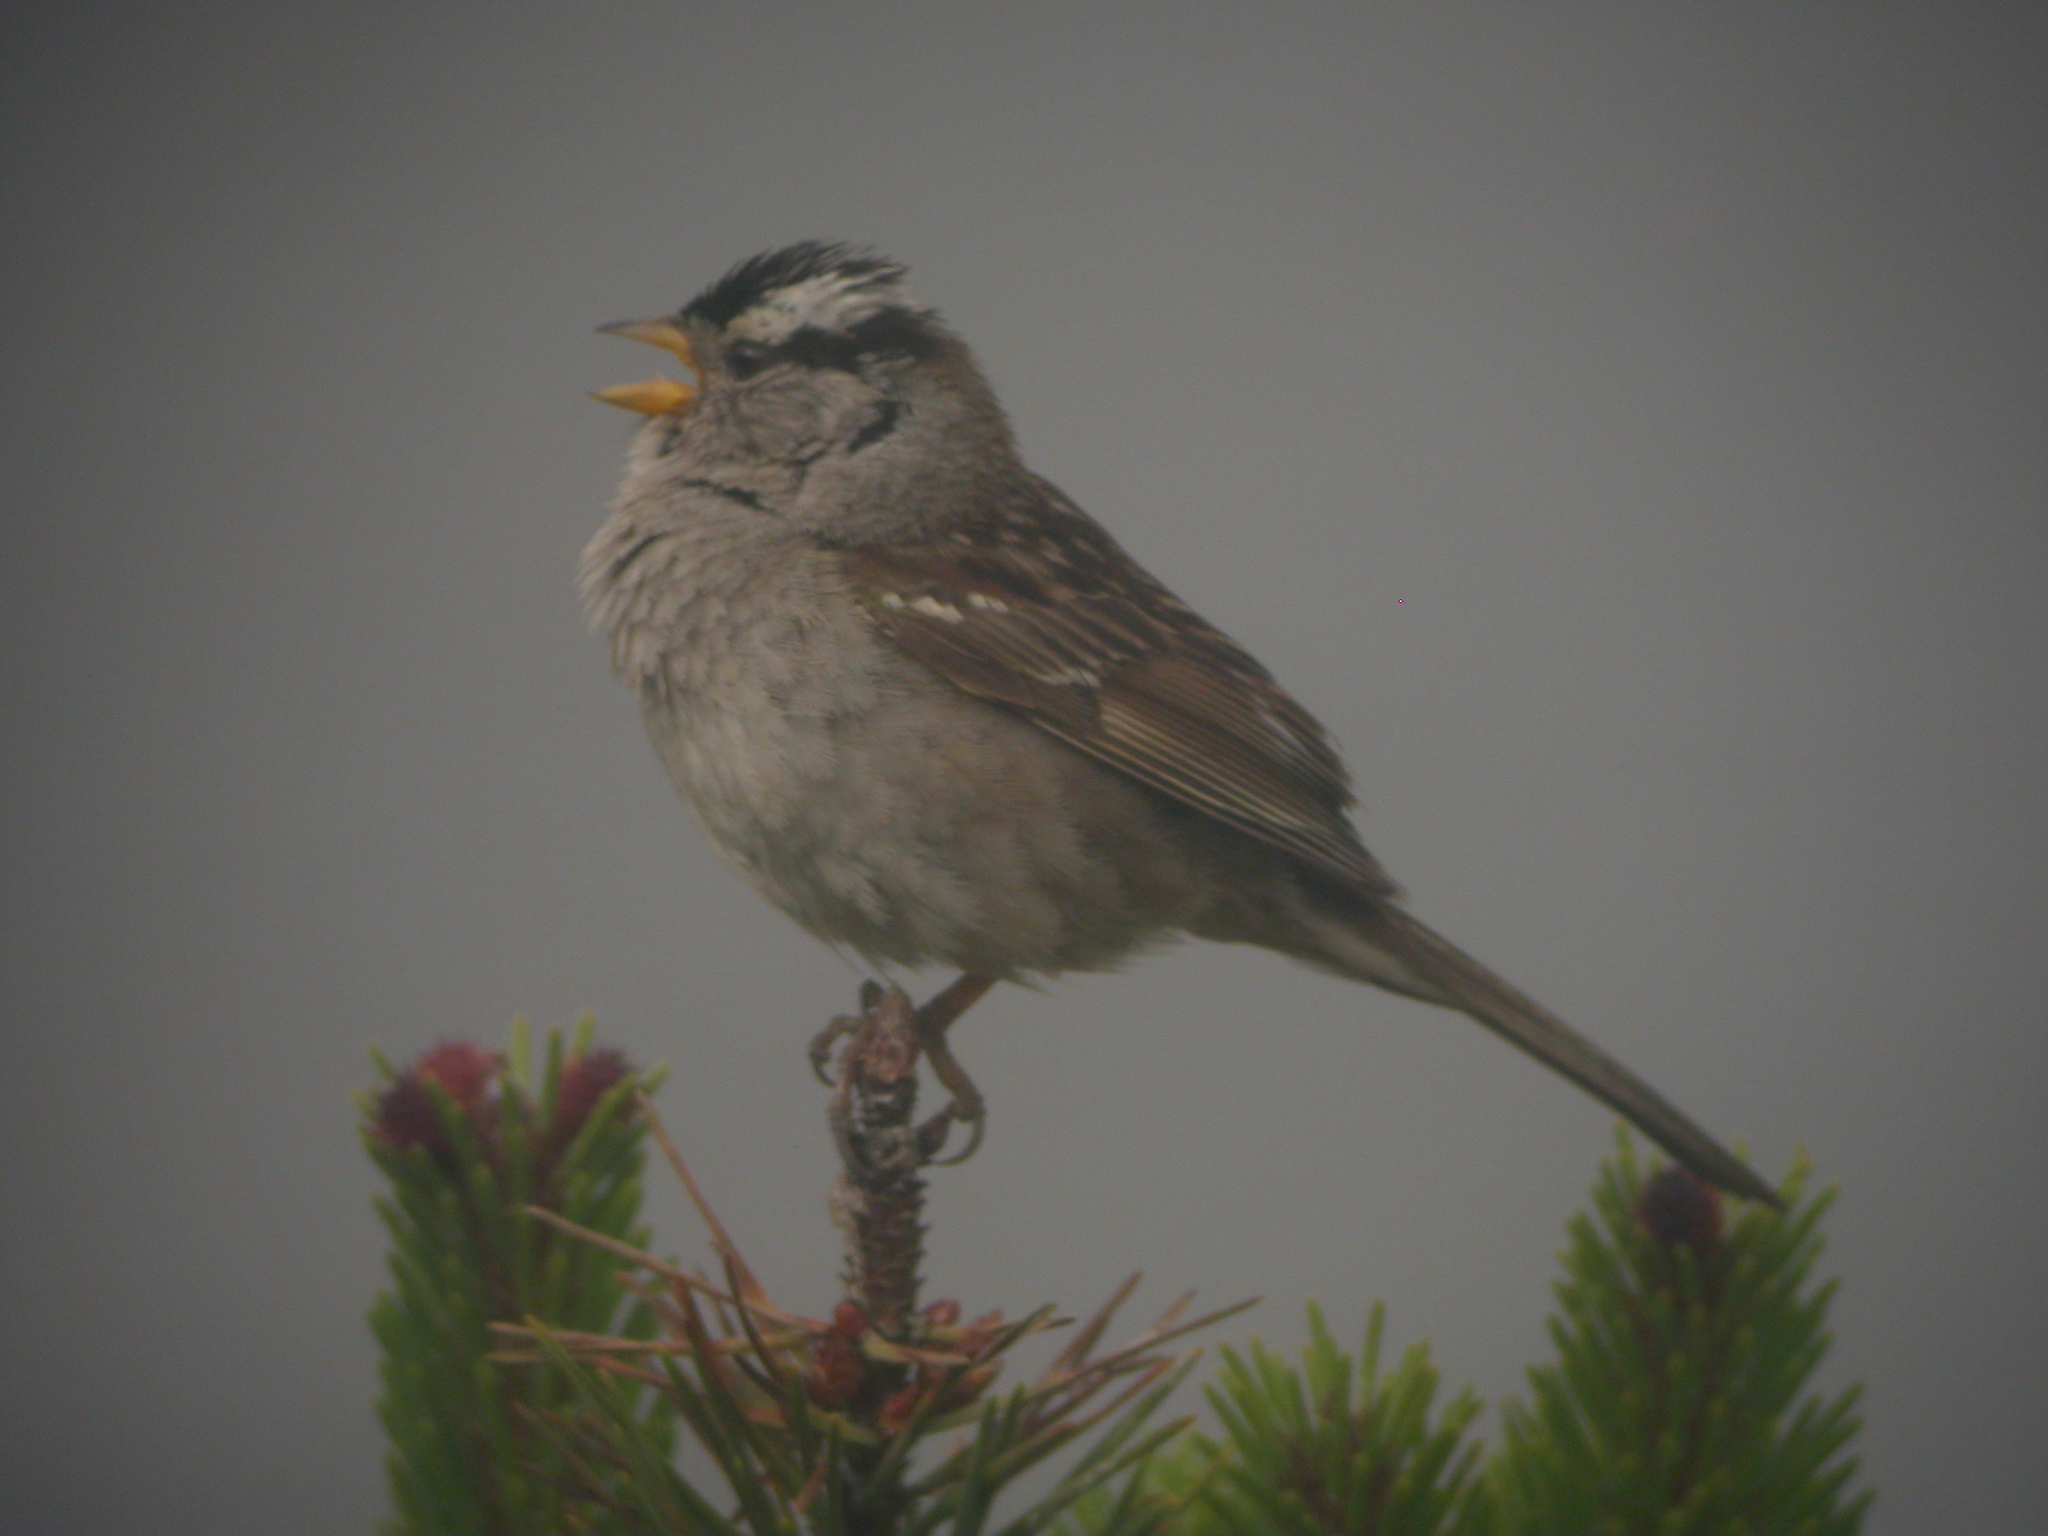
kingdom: Animalia
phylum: Chordata
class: Aves
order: Passeriformes
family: Passerellidae
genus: Zonotrichia
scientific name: Zonotrichia leucophrys
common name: White-crowned sparrow
